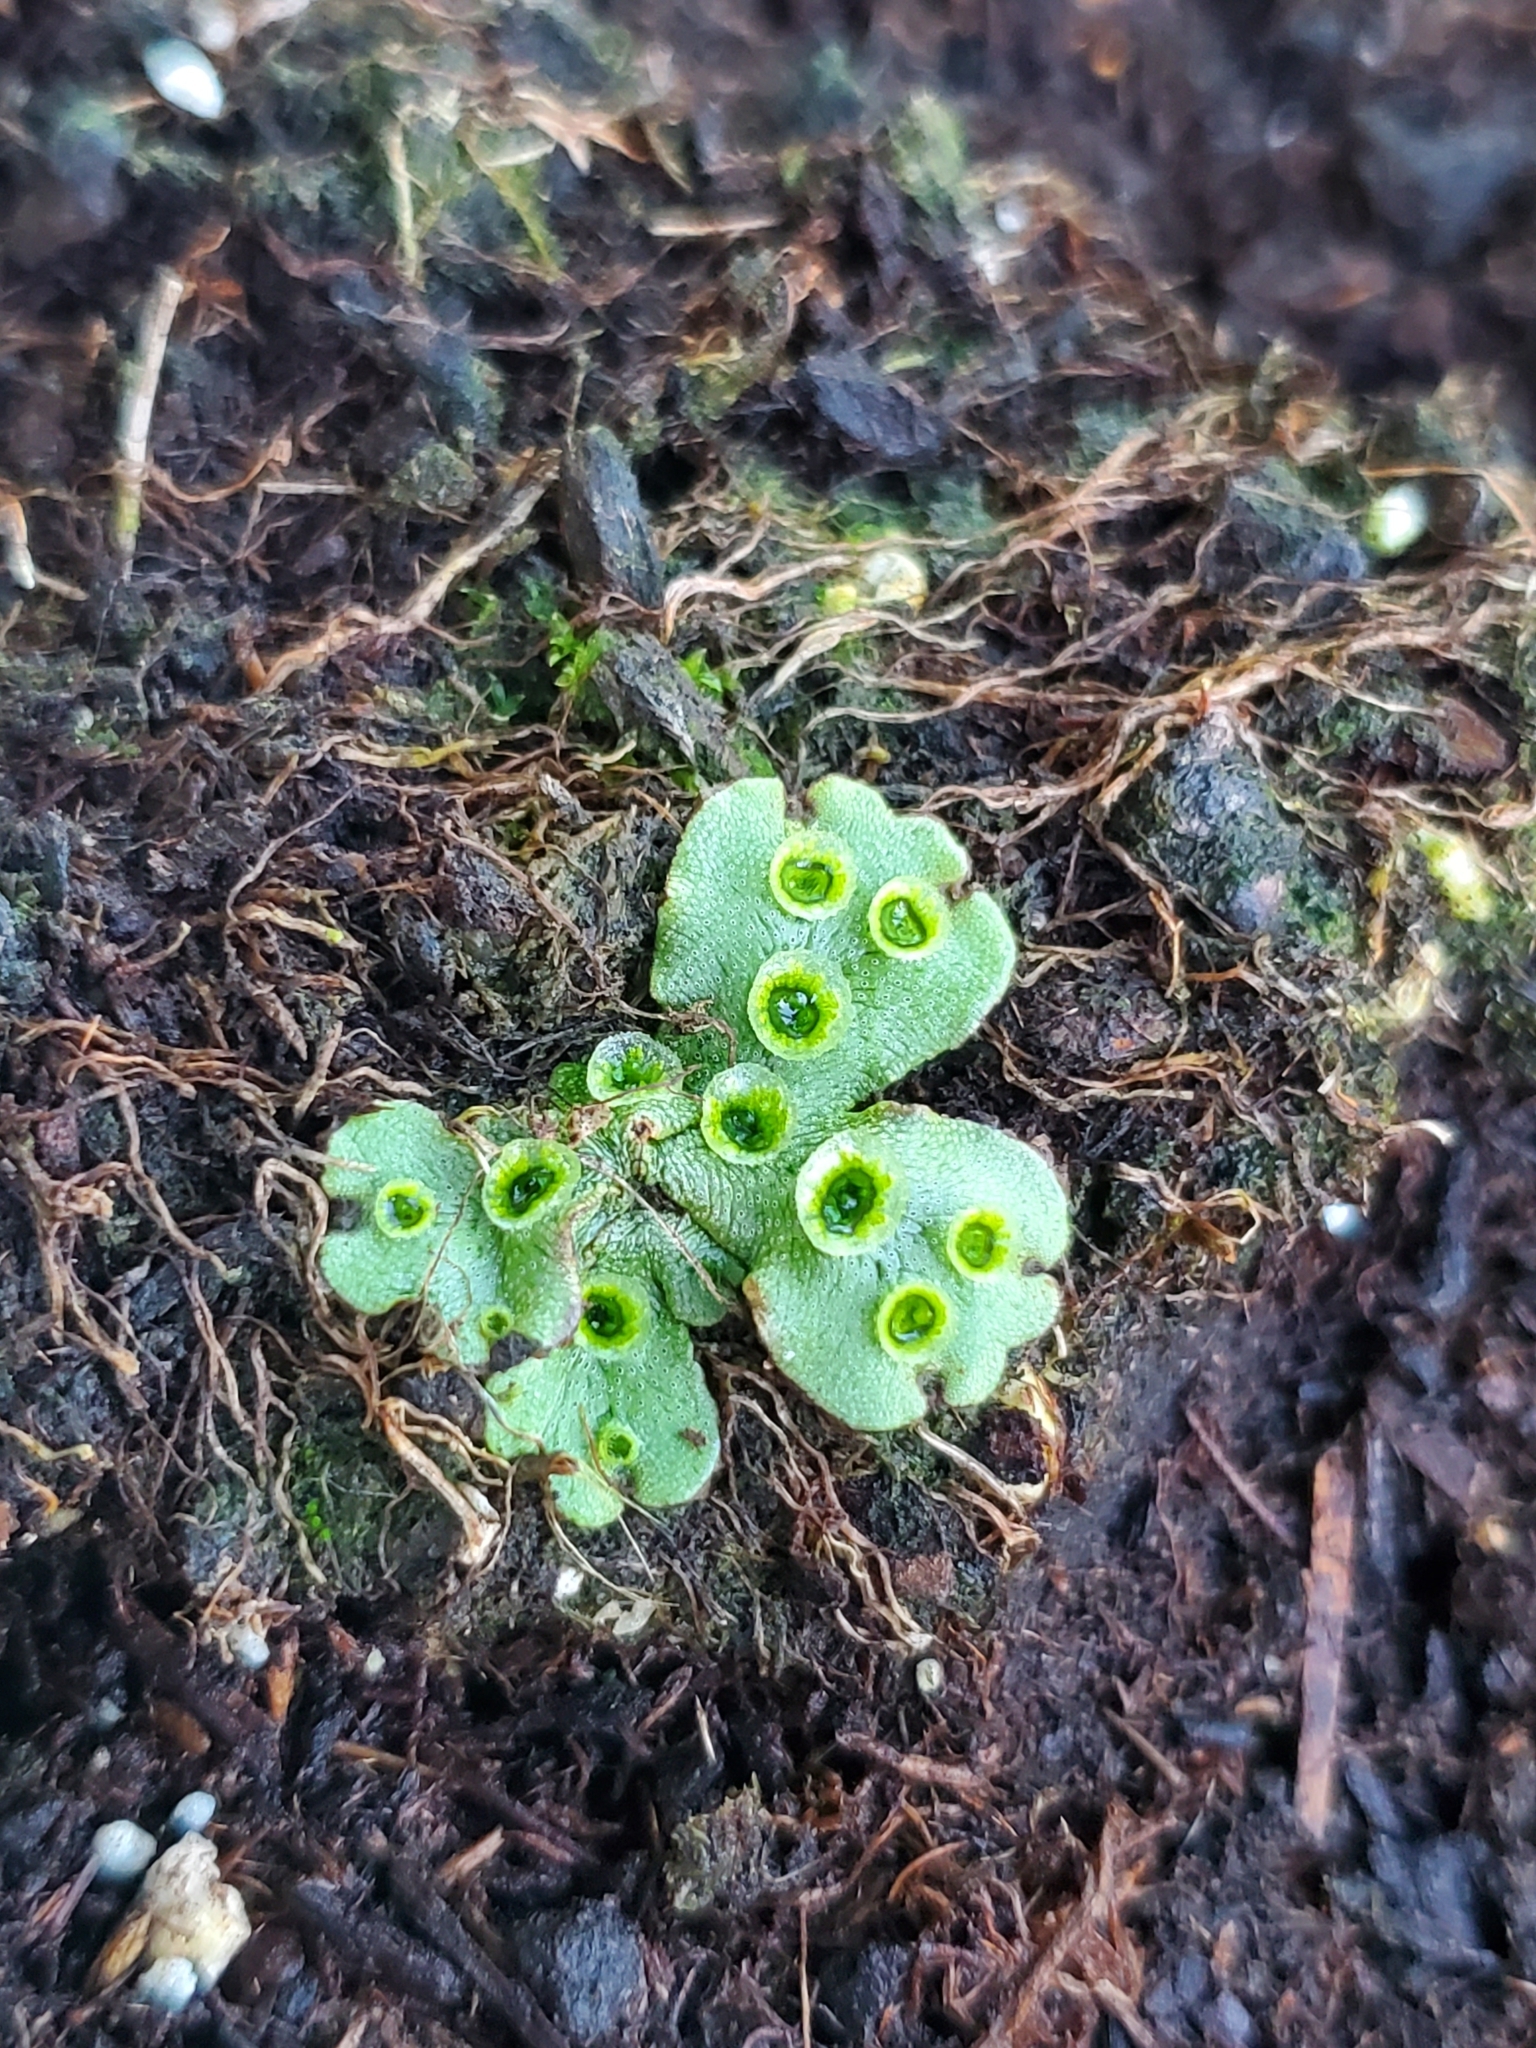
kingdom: Plantae
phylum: Marchantiophyta
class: Marchantiopsida
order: Marchantiales
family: Marchantiaceae
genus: Marchantia
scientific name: Marchantia polymorpha
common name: Common liverwort
